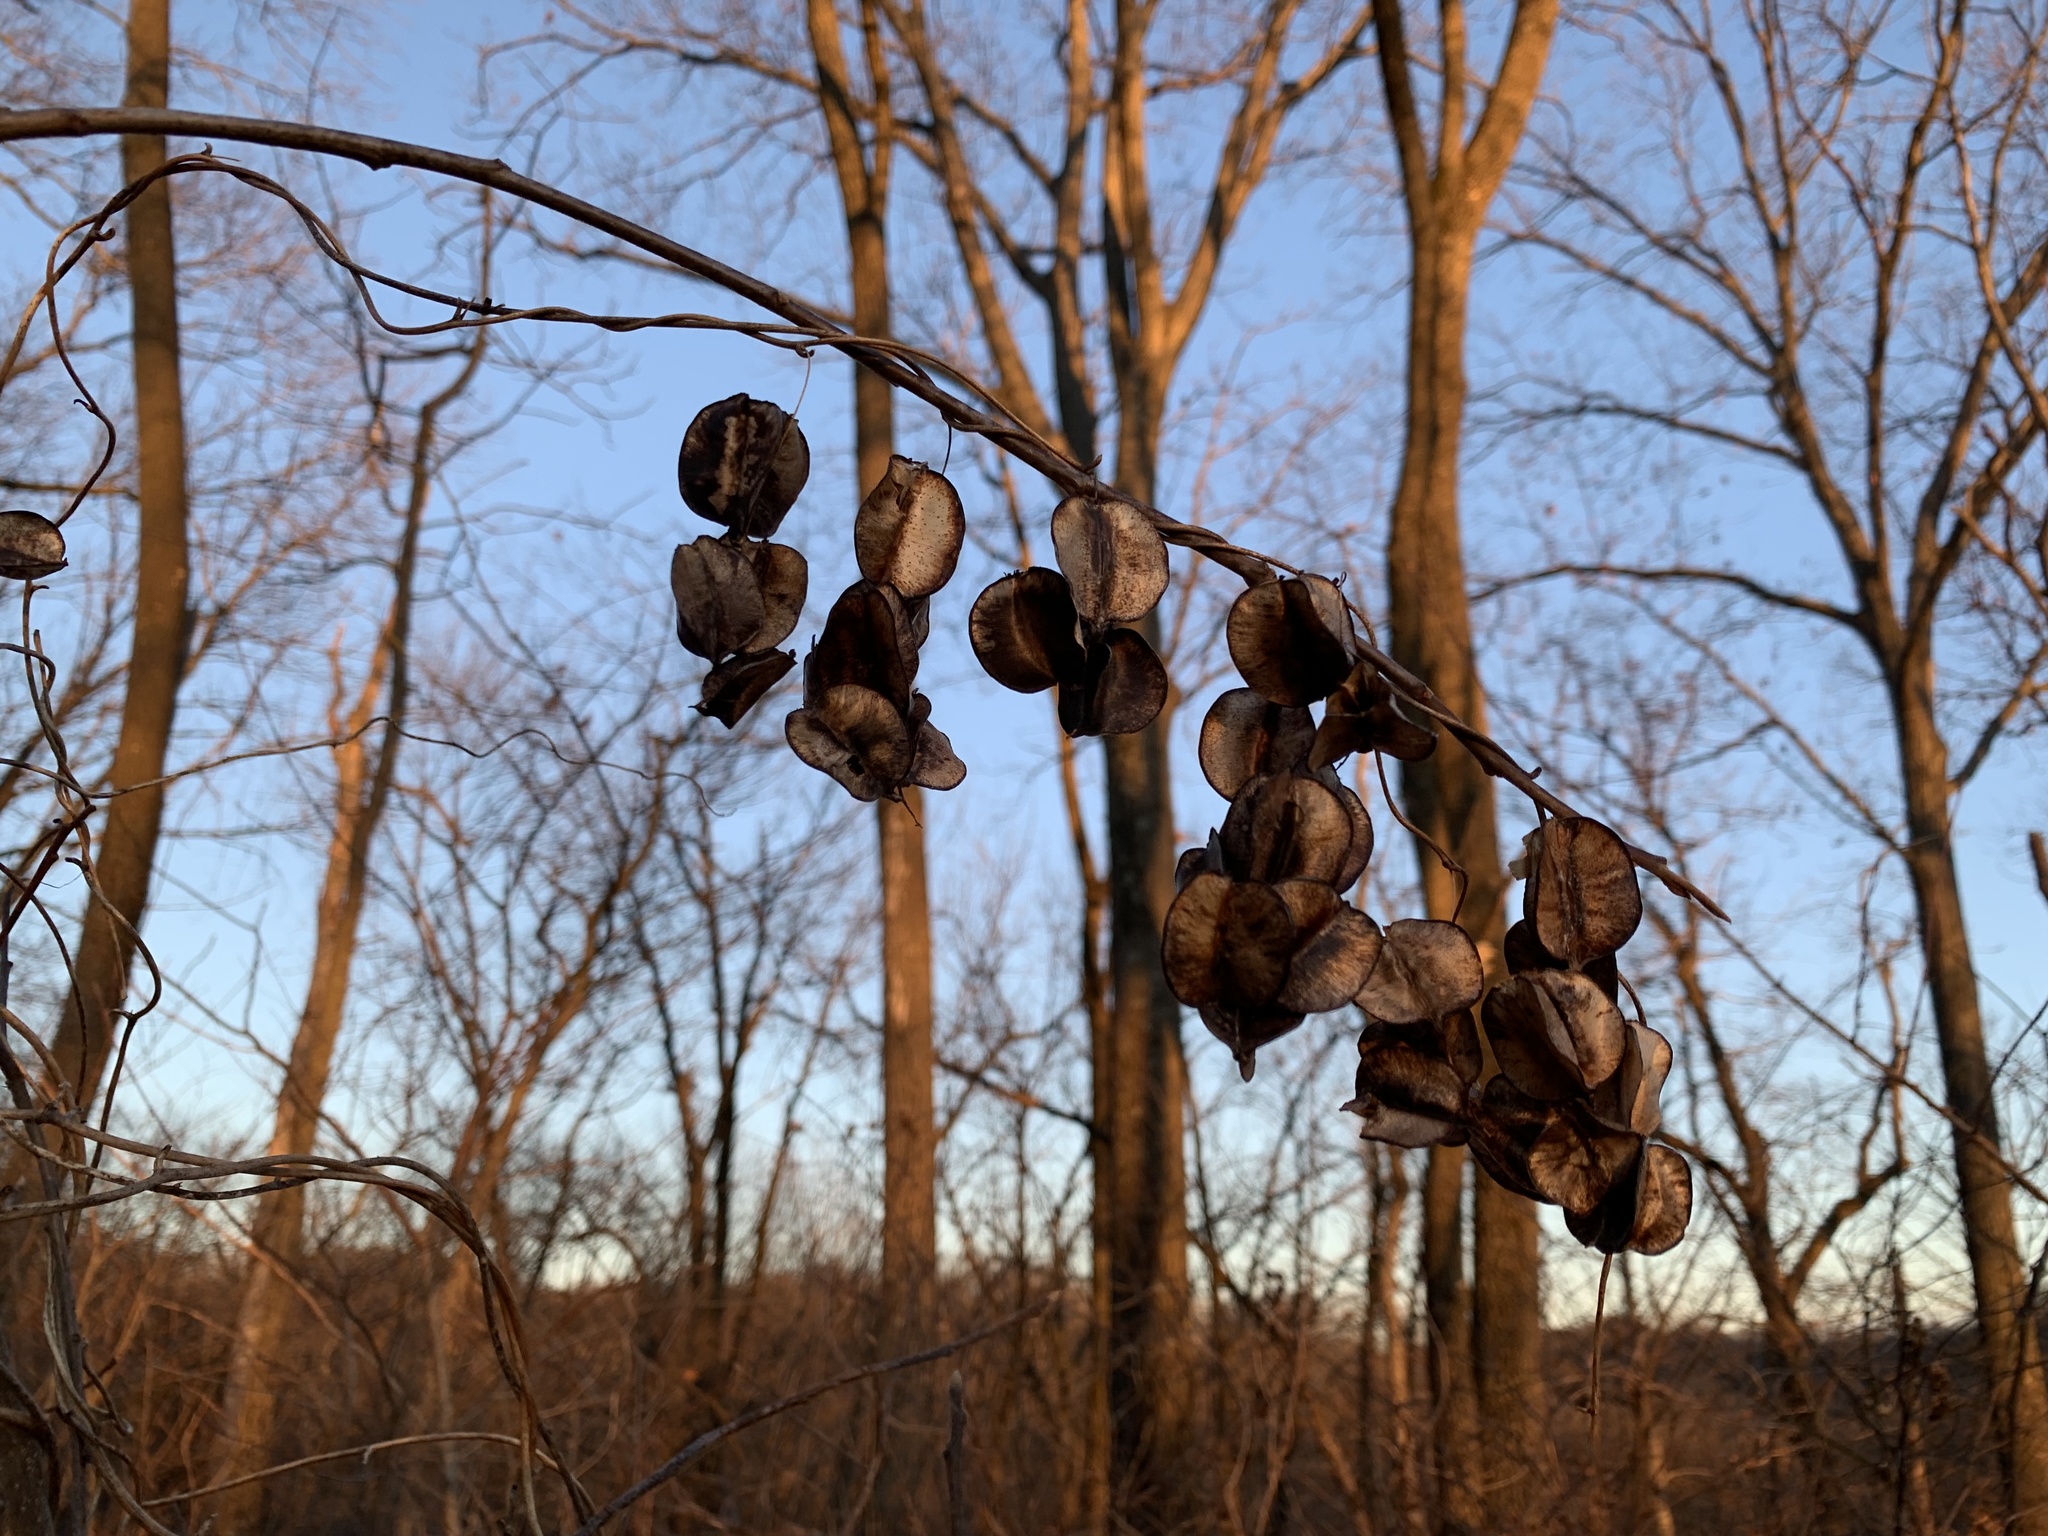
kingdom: Plantae
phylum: Tracheophyta
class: Liliopsida
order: Dioscoreales
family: Dioscoreaceae
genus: Dioscorea
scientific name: Dioscorea villosa
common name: Wild yam
